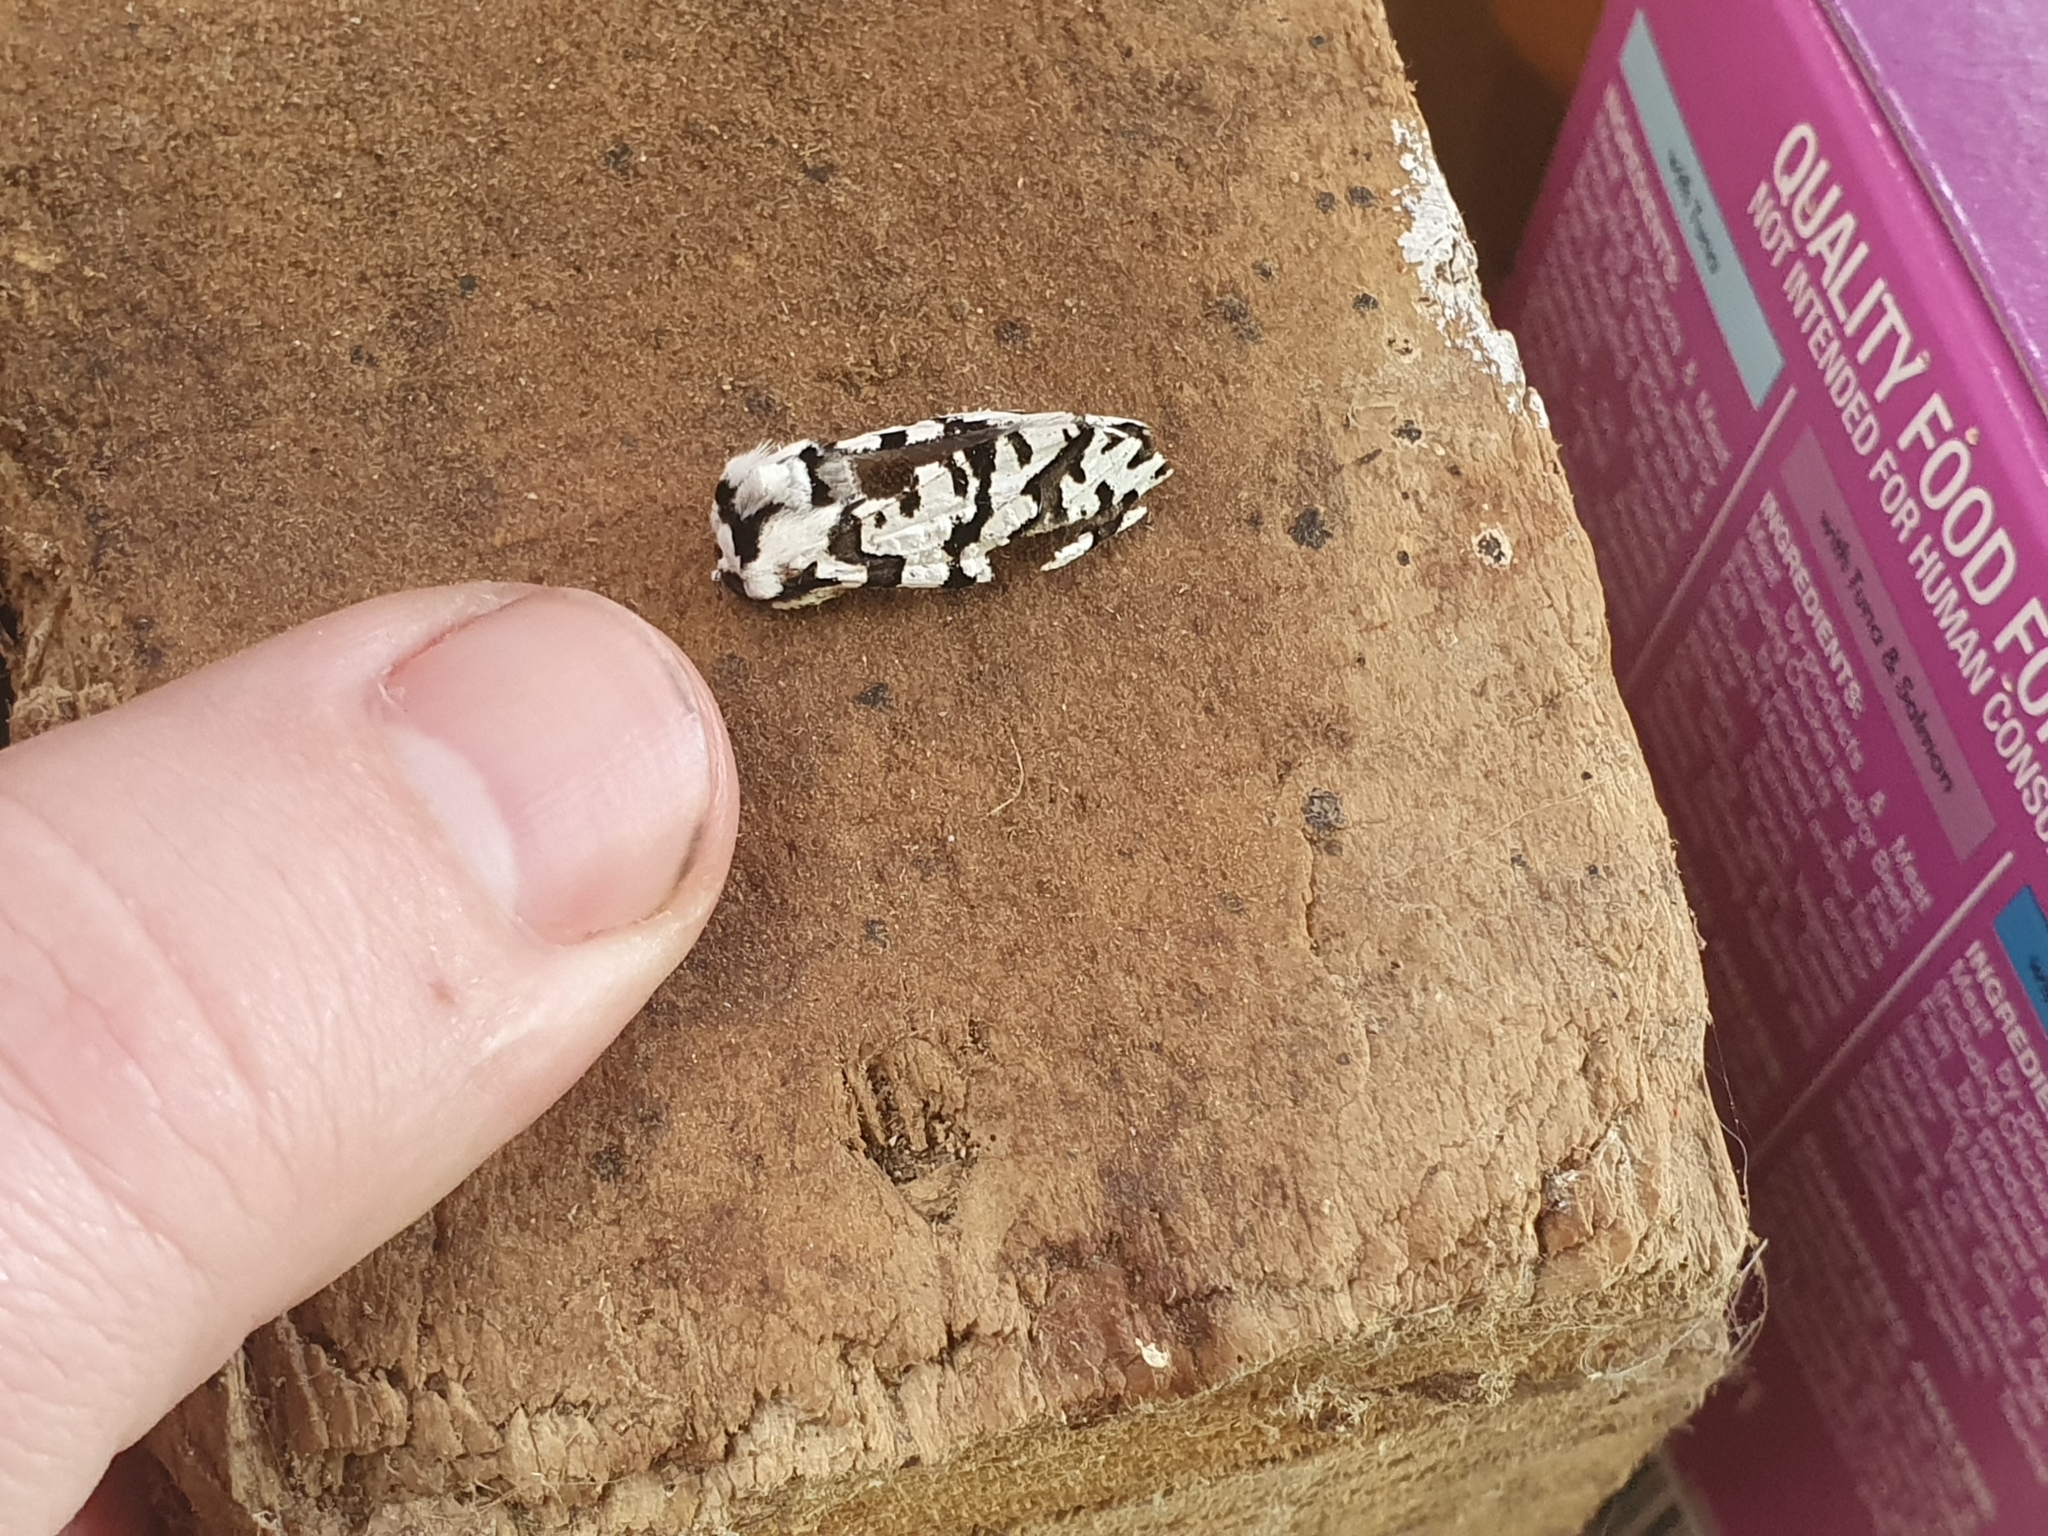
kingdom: Animalia
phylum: Arthropoda
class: Insecta
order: Lepidoptera
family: Geometridae
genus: Declana
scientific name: Declana
